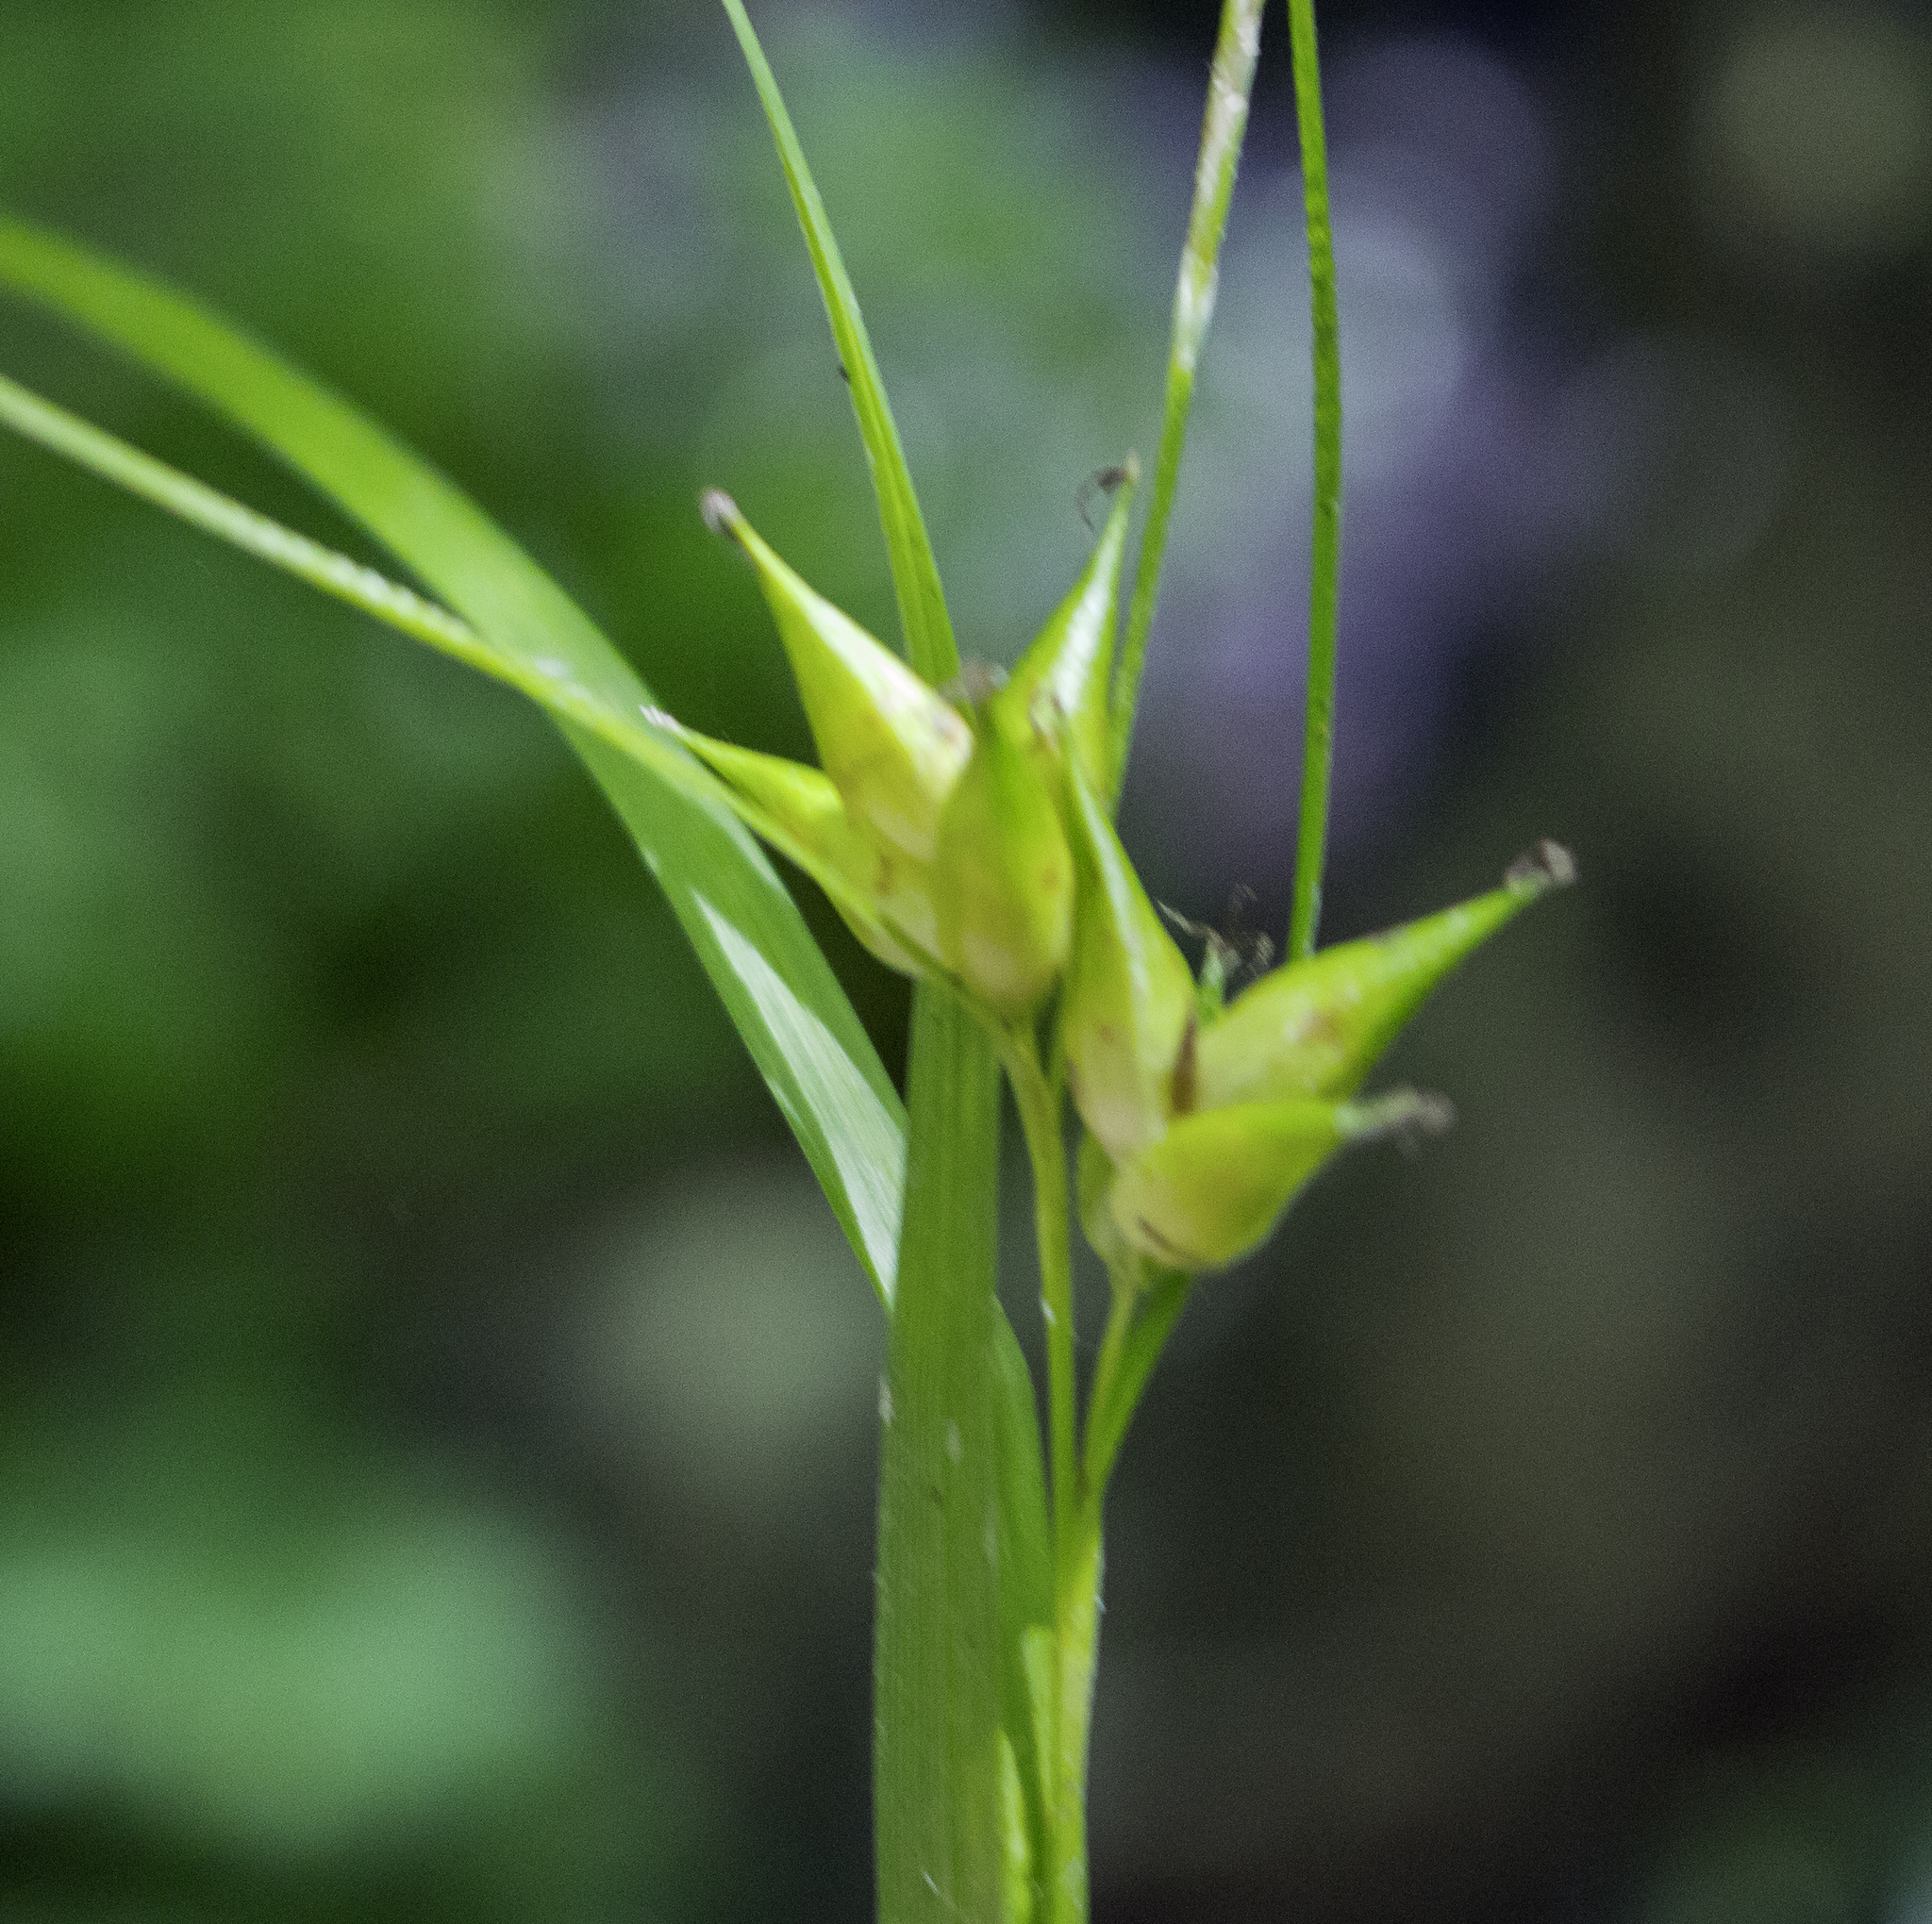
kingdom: Plantae
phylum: Tracheophyta
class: Liliopsida
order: Poales
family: Cyperaceae
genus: Carex
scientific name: Carex intumescens
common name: Greater bladder sedge
